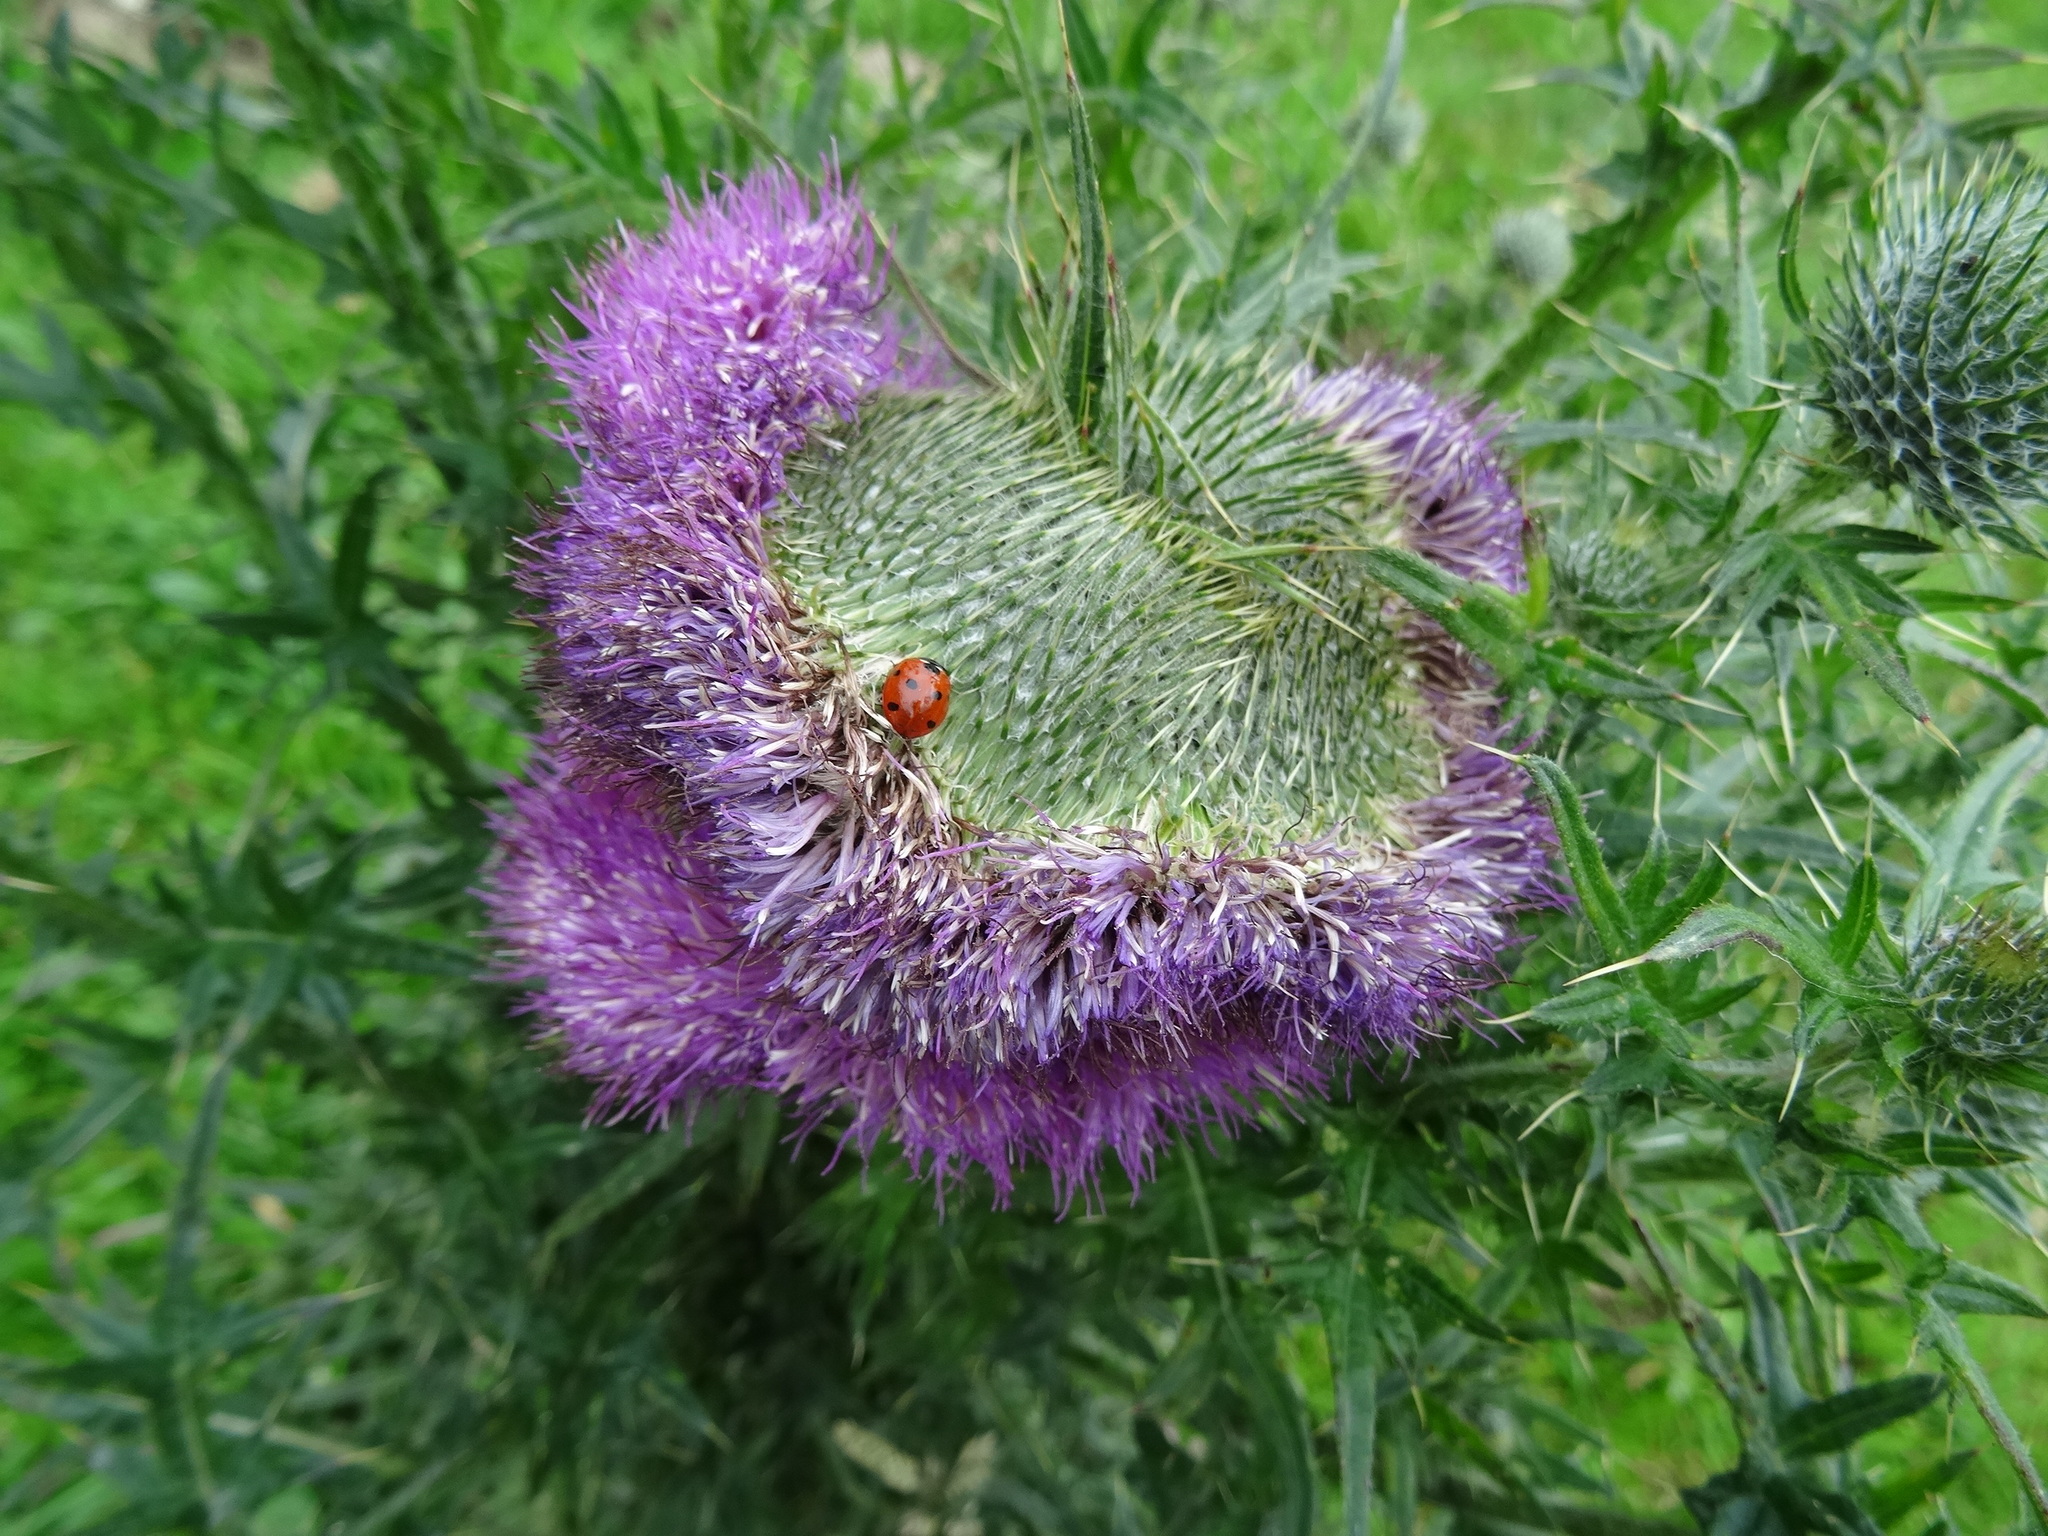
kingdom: Plantae
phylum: Tracheophyta
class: Magnoliopsida
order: Asterales
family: Asteraceae
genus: Cirsium
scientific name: Cirsium vulgare
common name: Bull thistle
